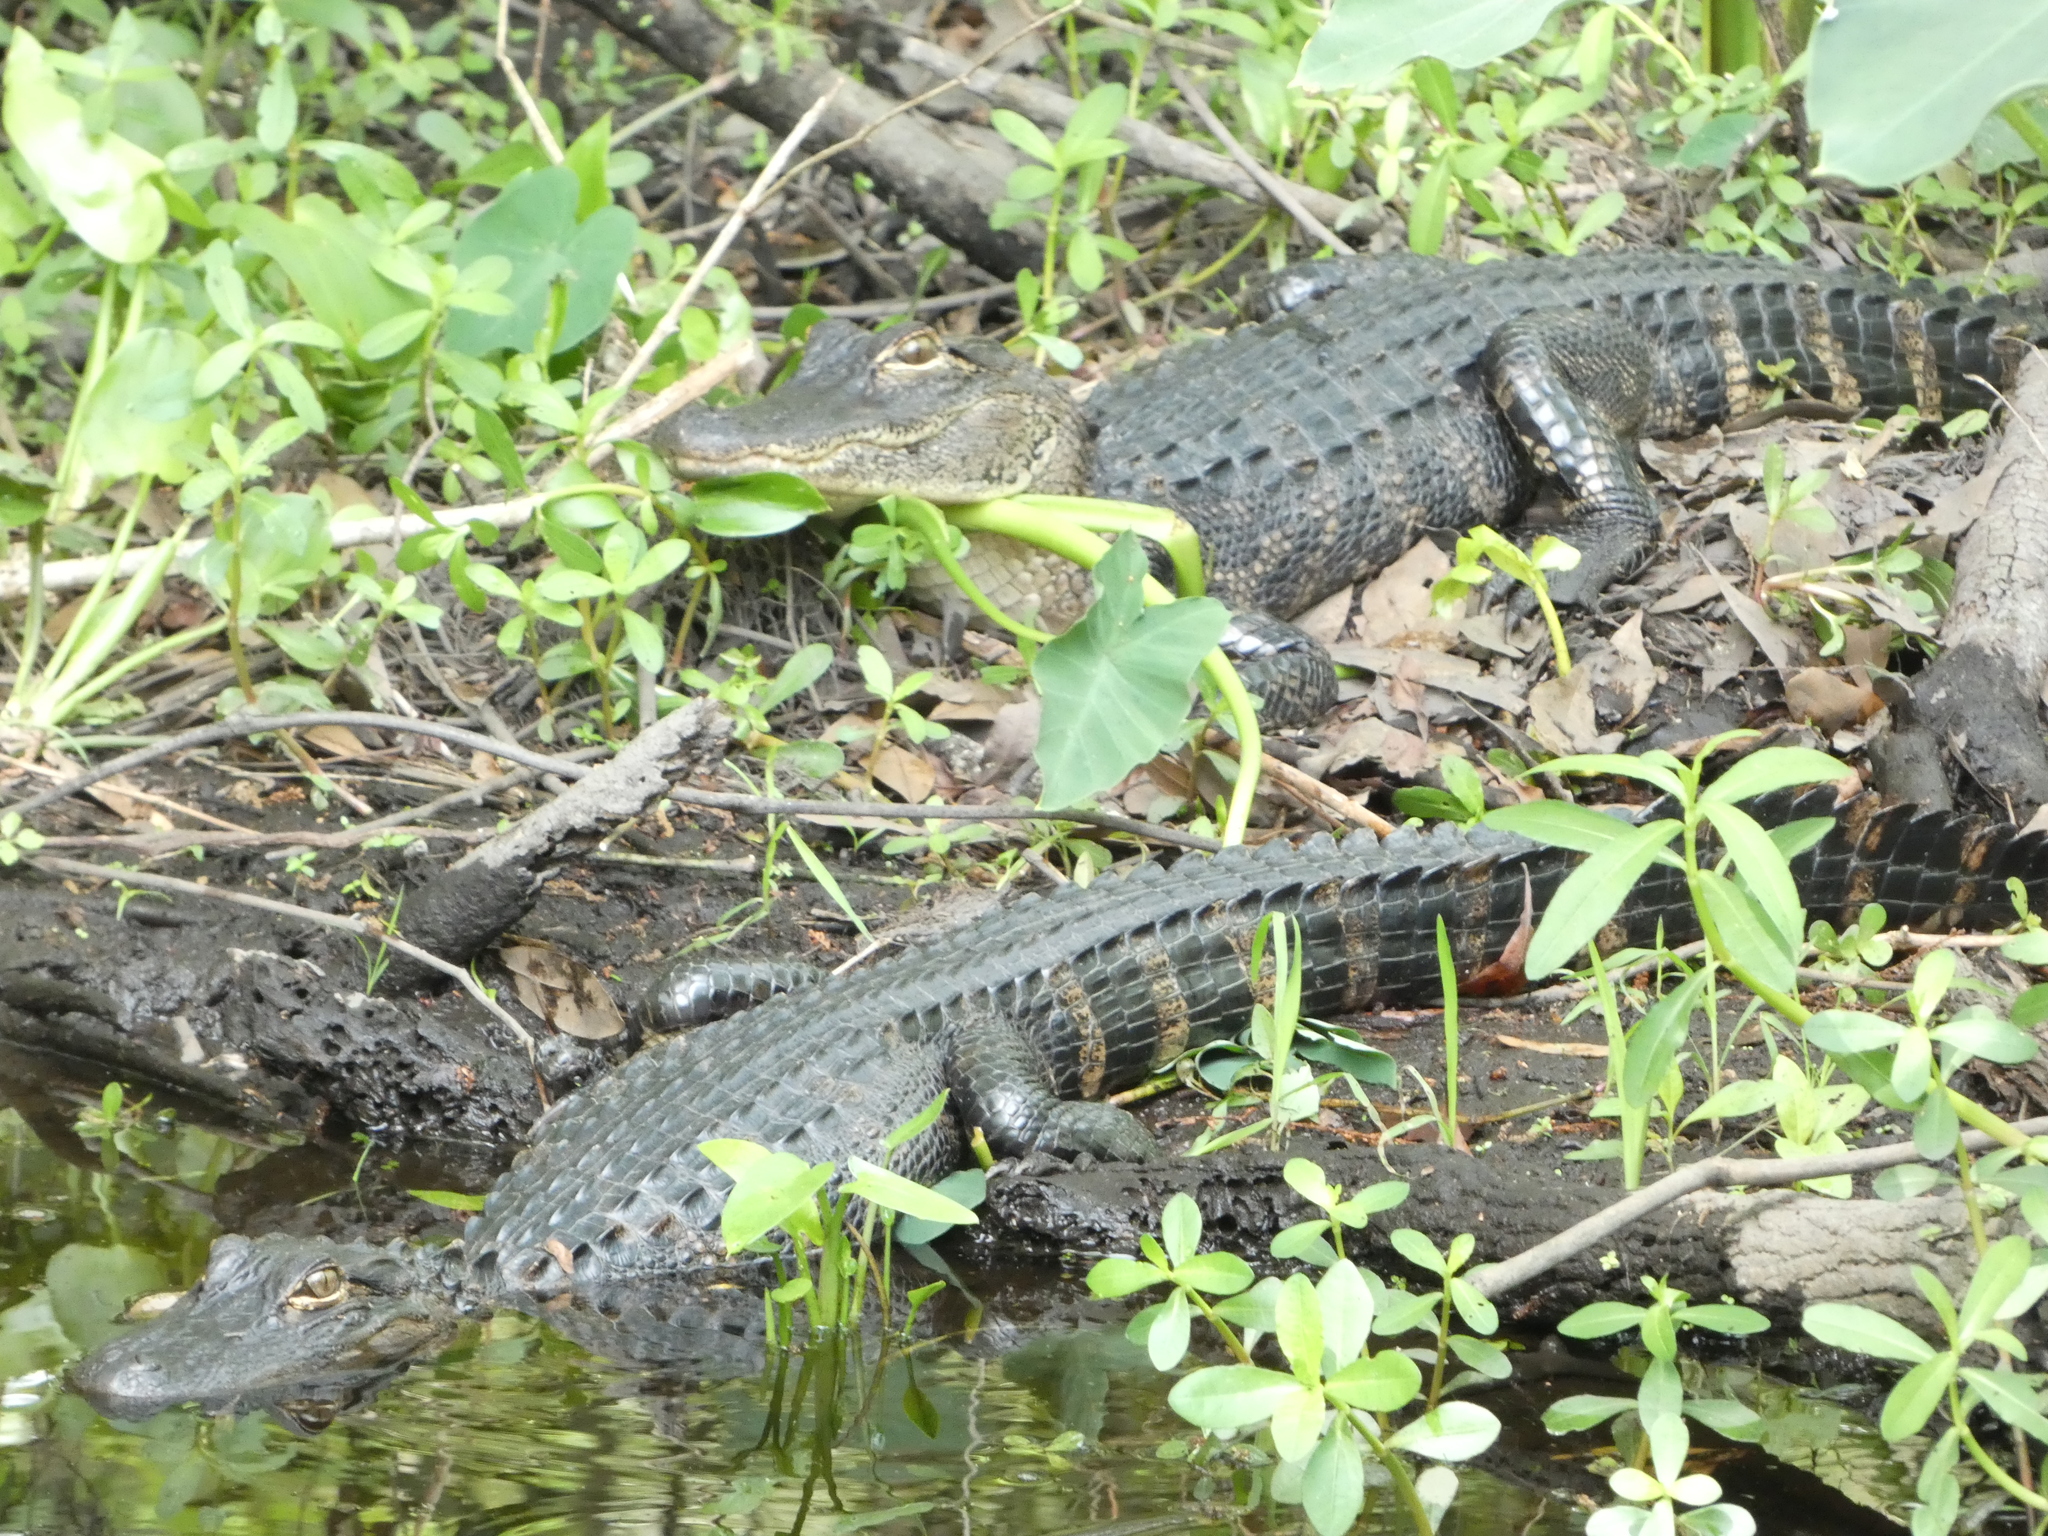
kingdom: Animalia
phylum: Chordata
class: Crocodylia
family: Alligatoridae
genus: Alligator
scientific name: Alligator mississippiensis
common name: American alligator
